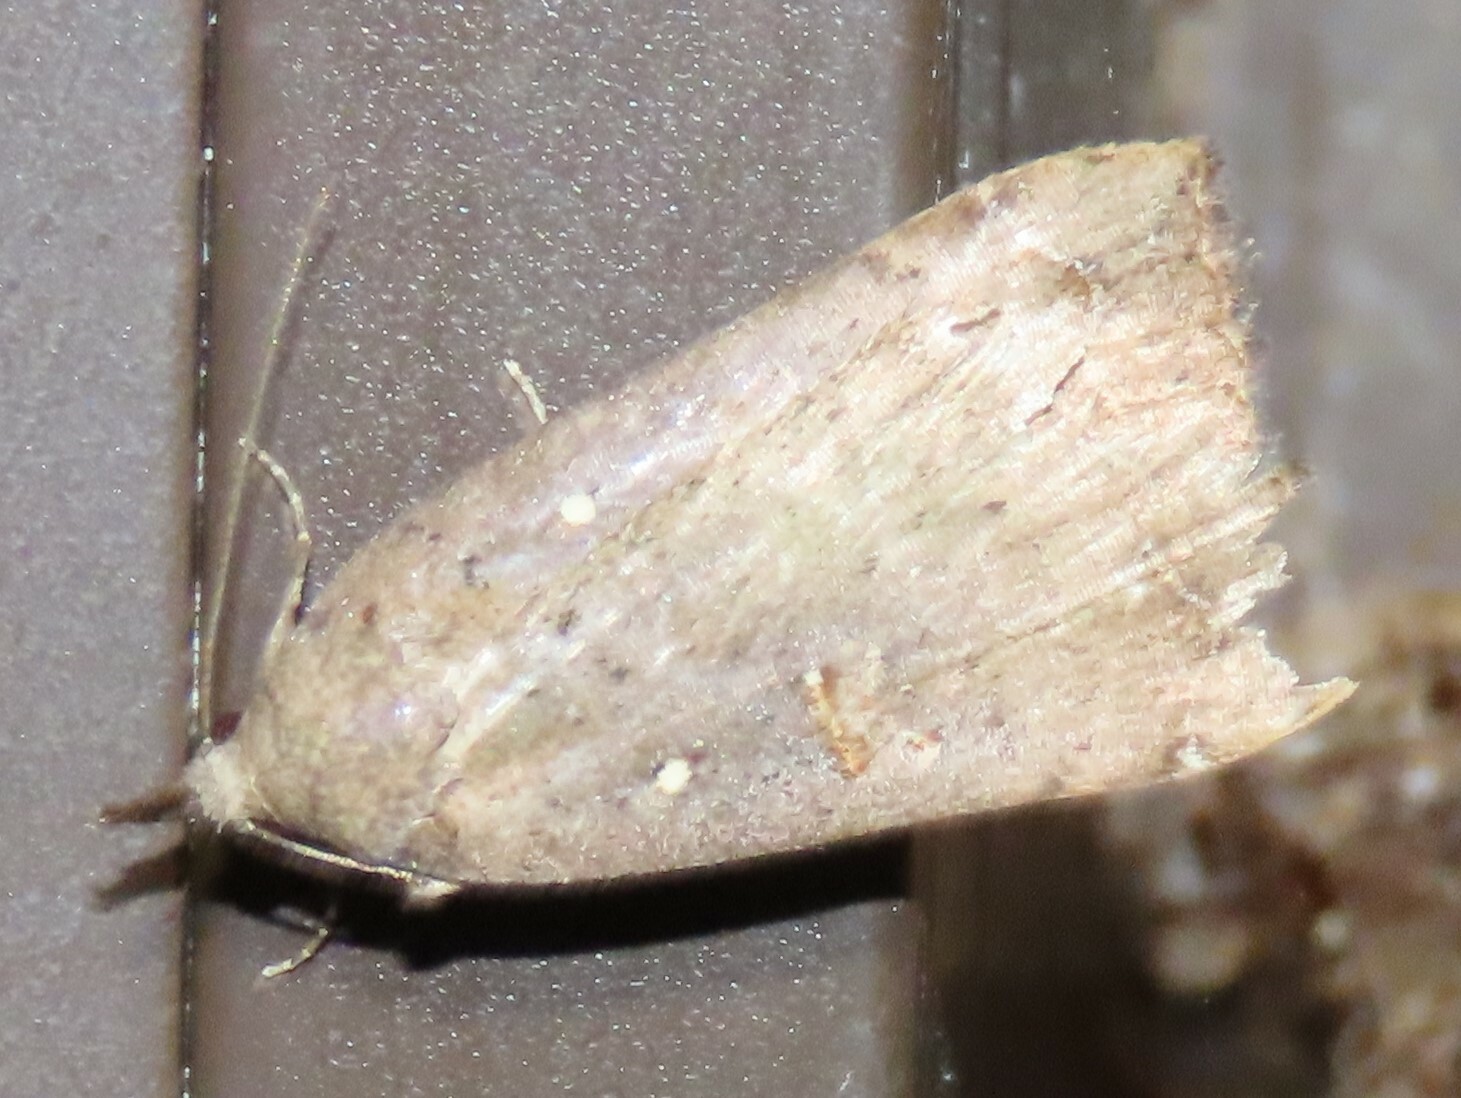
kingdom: Animalia
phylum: Arthropoda
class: Insecta
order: Lepidoptera
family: Erebidae
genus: Rhapsa
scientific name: Rhapsa scotosialis
